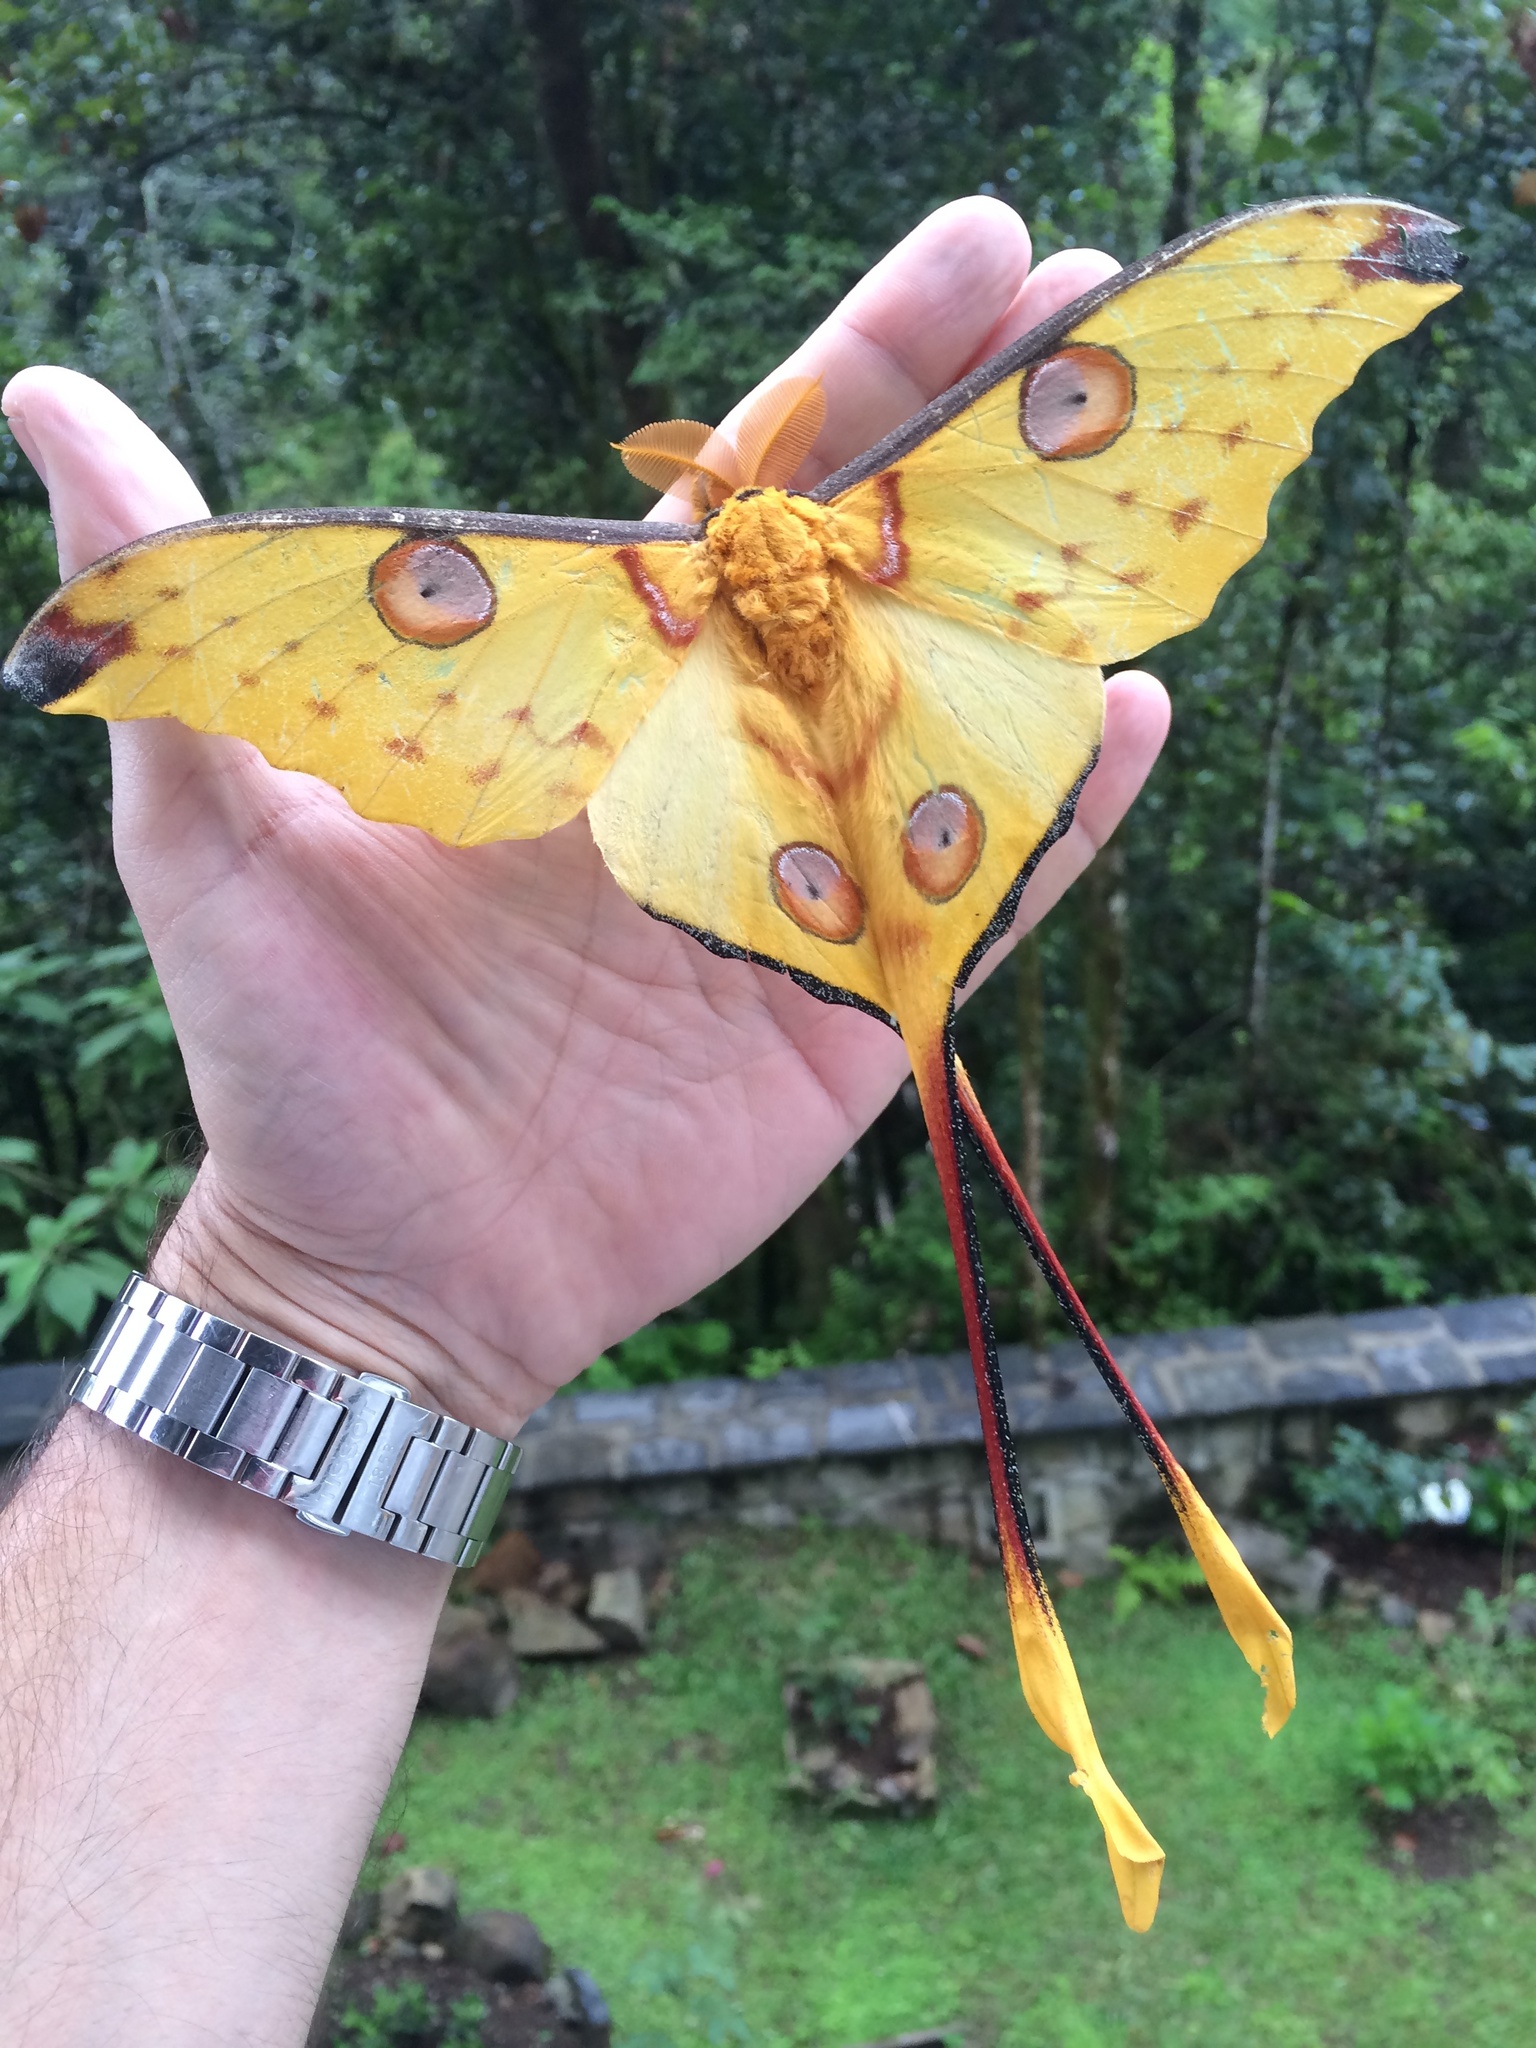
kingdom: Animalia
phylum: Arthropoda
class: Insecta
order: Lepidoptera
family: Saturniidae
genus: Argema
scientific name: Argema mittrei
